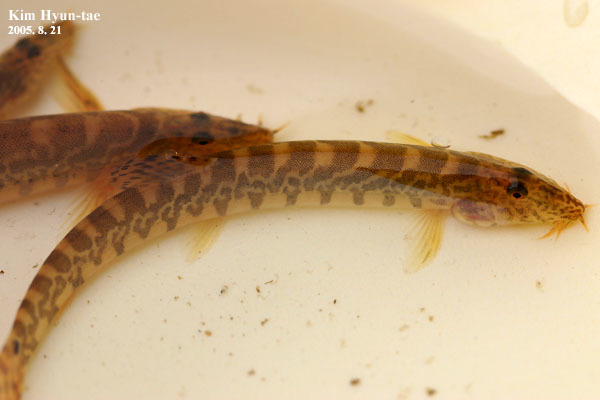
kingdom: Animalia
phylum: Chordata
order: Cypriniformes
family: Cobitidae
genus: Iksookimia
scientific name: Iksookimia koreensis
